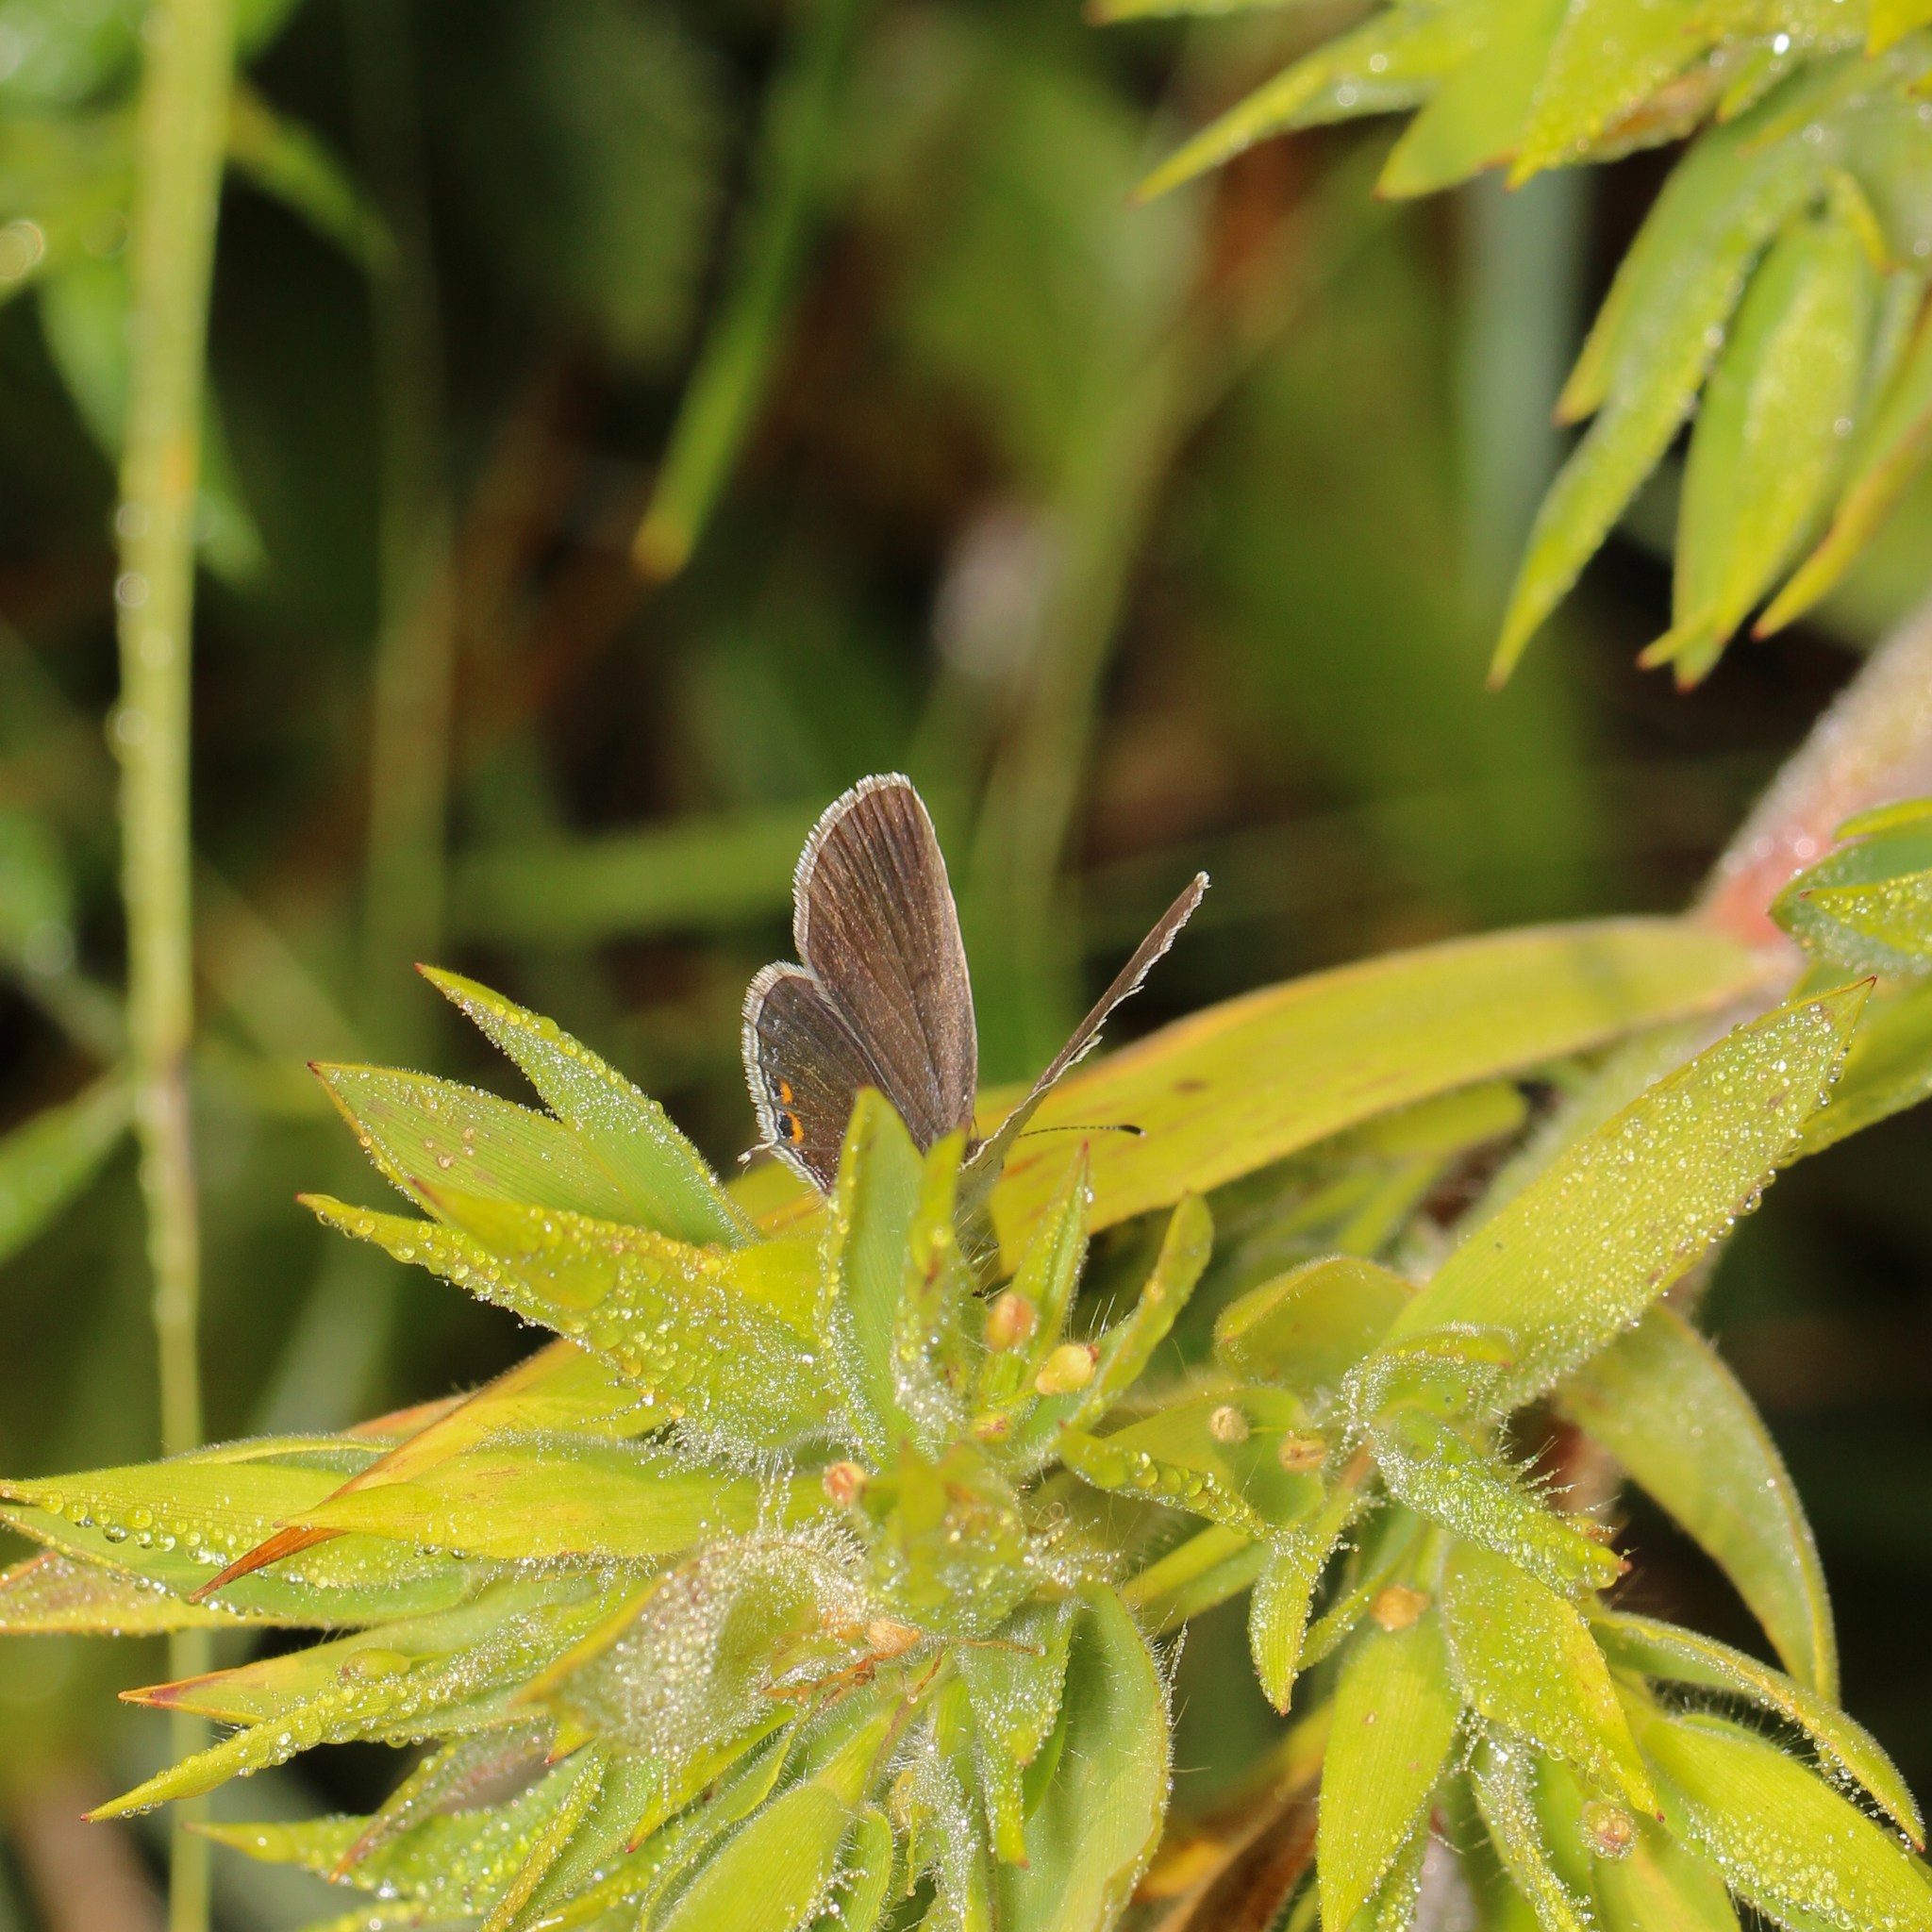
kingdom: Animalia
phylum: Arthropoda
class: Insecta
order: Lepidoptera
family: Lycaenidae
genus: Elkalyce
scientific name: Elkalyce comyntas
